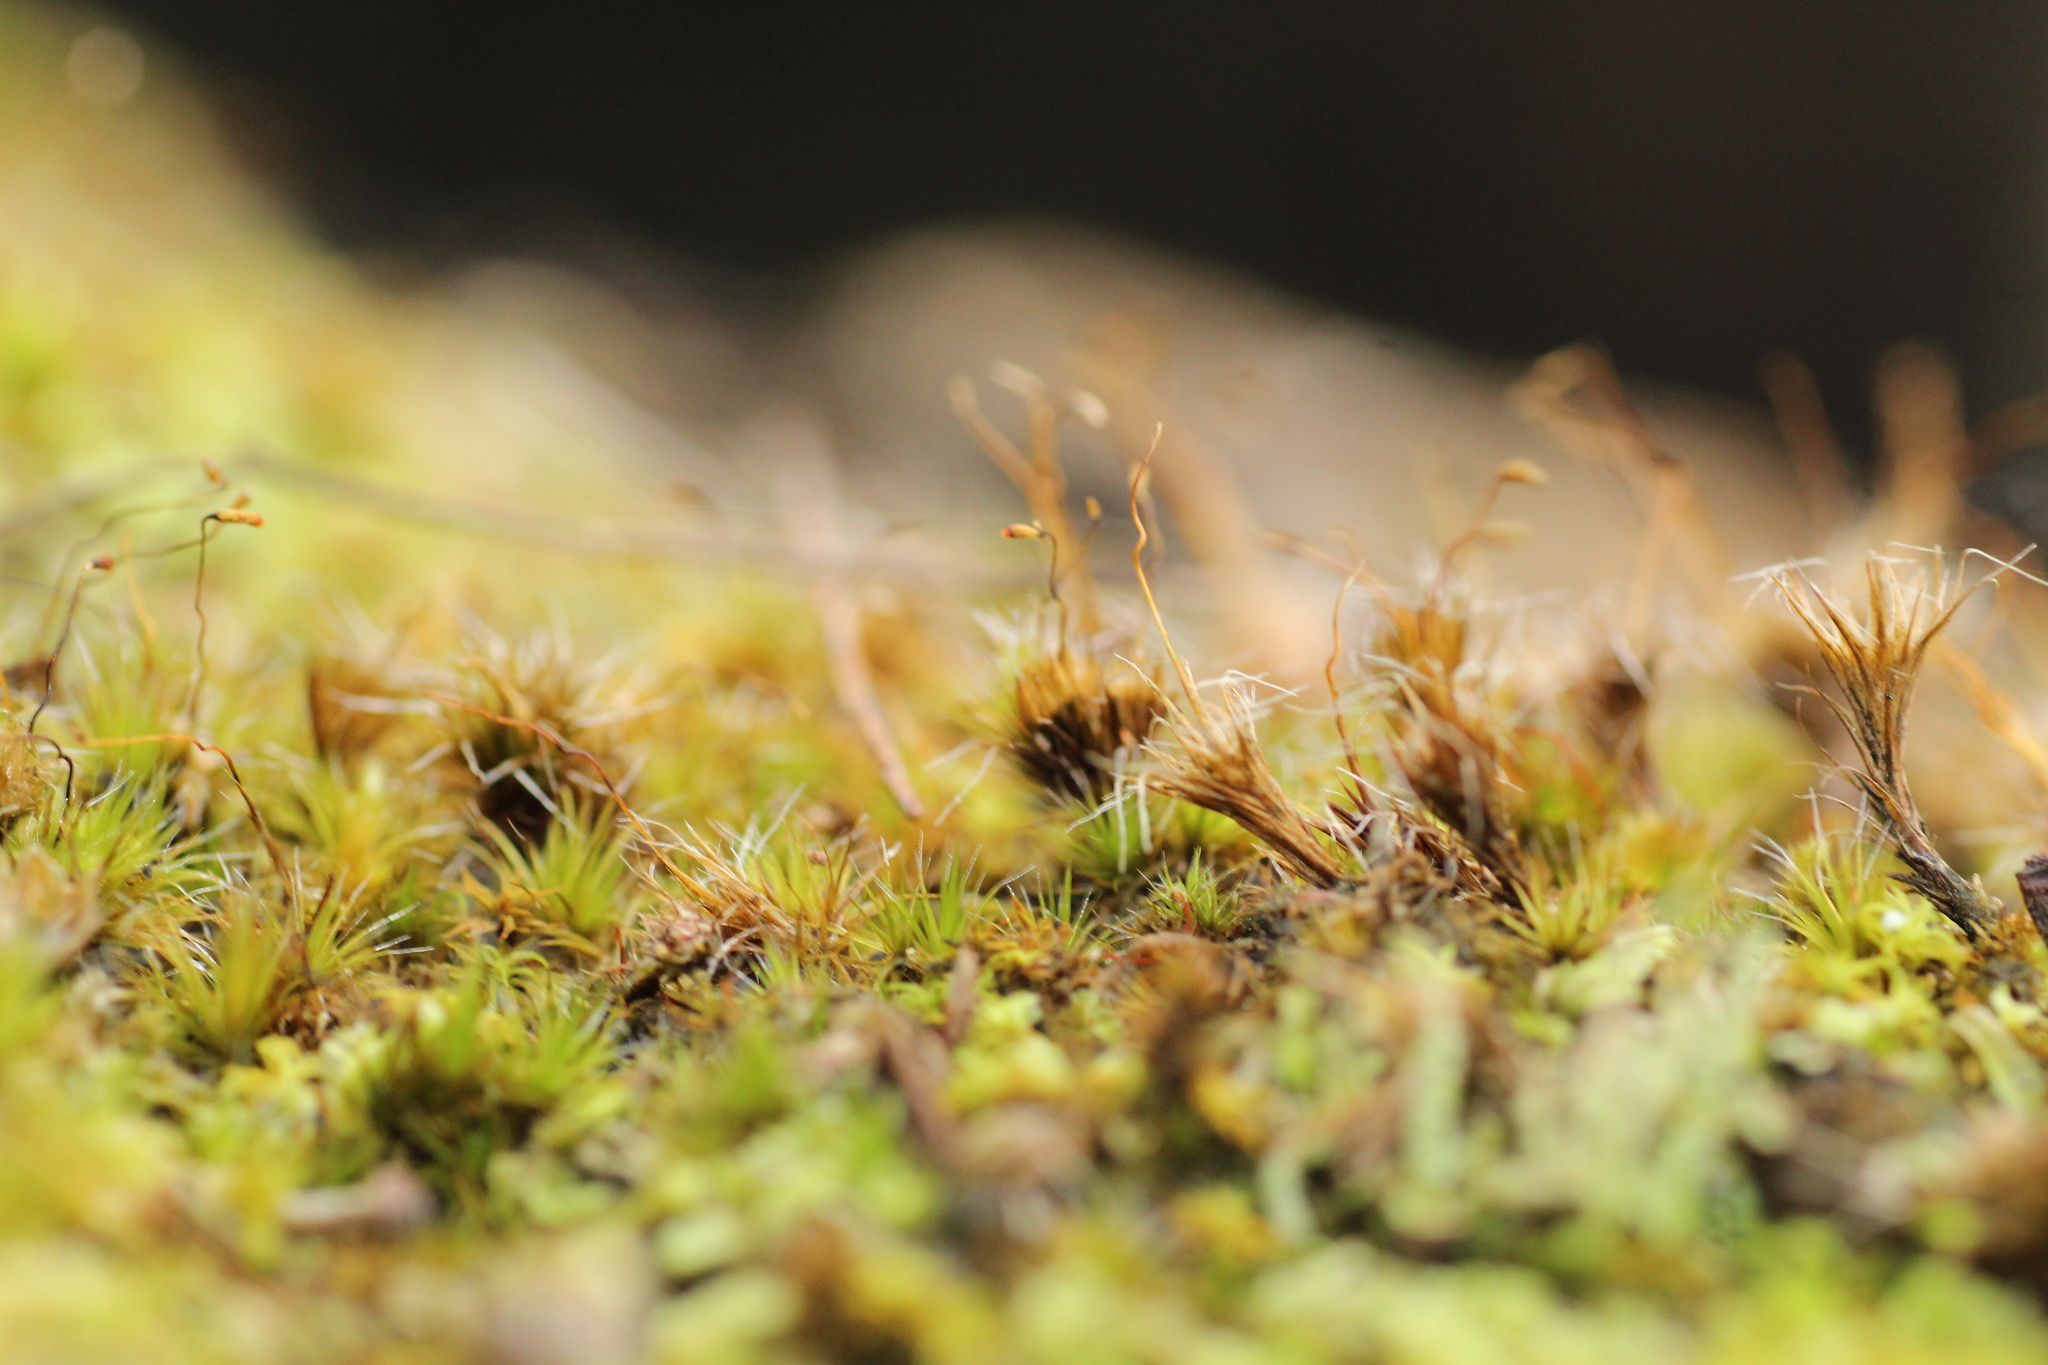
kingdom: Plantae
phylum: Bryophyta
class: Bryopsida
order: Dicranales
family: Leucobryaceae
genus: Campylopus
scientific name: Campylopus introflexus
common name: Heath star moss
